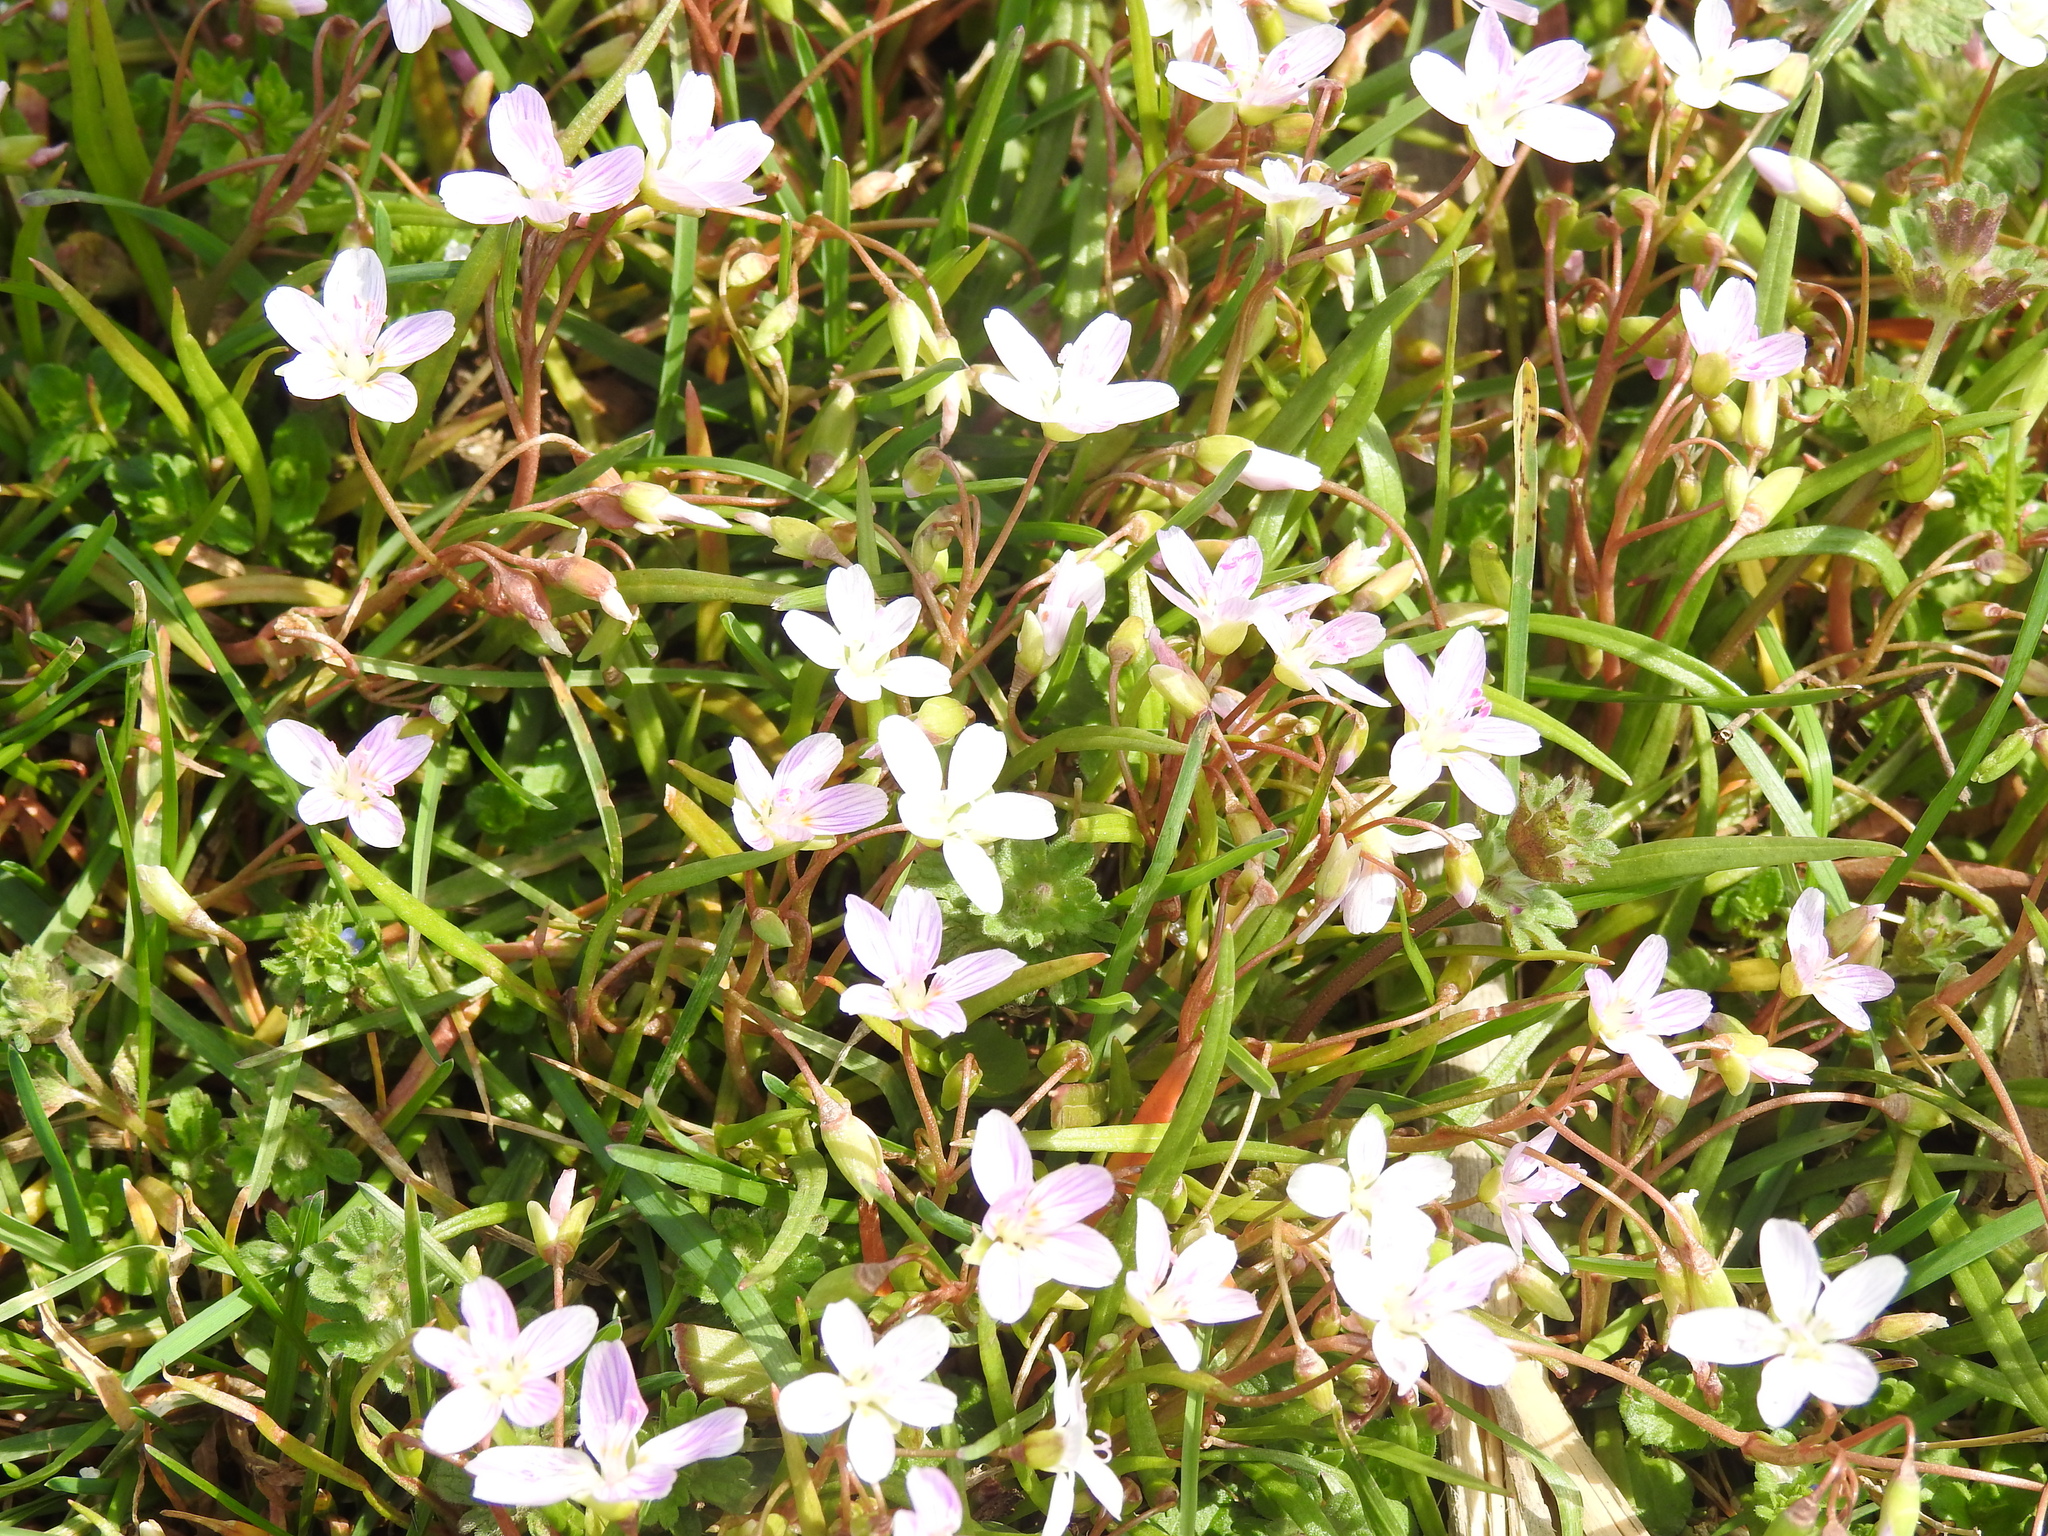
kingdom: Plantae
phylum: Tracheophyta
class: Magnoliopsida
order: Caryophyllales
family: Montiaceae
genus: Claytonia
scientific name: Claytonia virginica
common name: Virginia springbeauty
